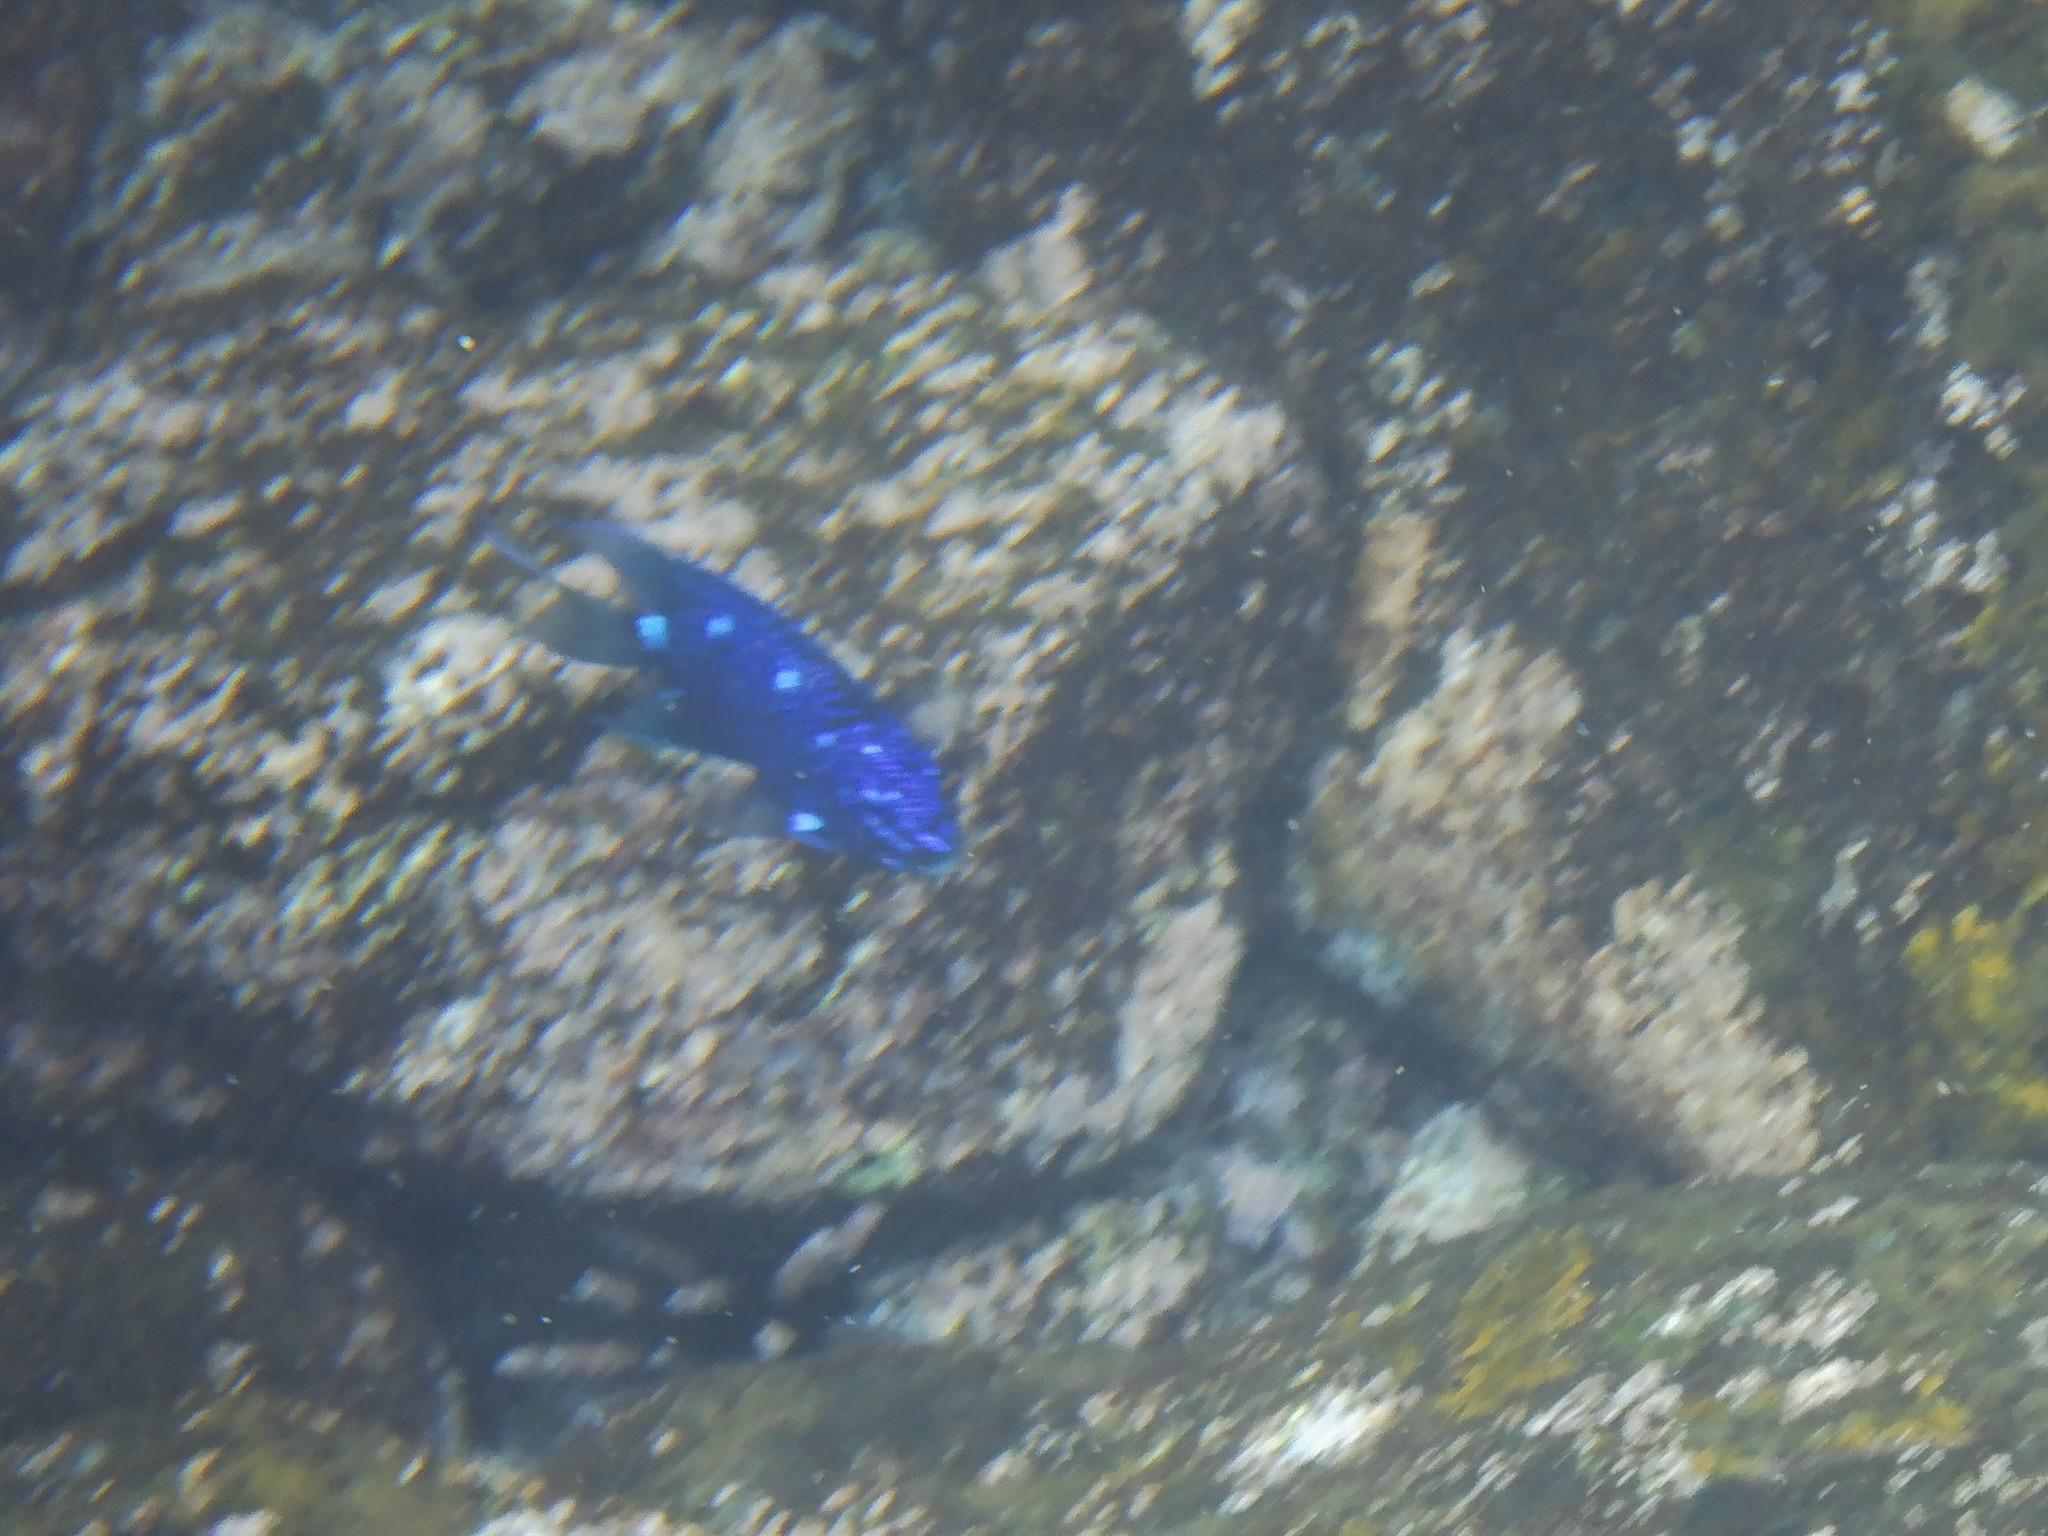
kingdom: Animalia
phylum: Chordata
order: Perciformes
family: Pomacentridae
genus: Microspathodon
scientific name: Microspathodon dorsalis
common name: Giant damselfish
